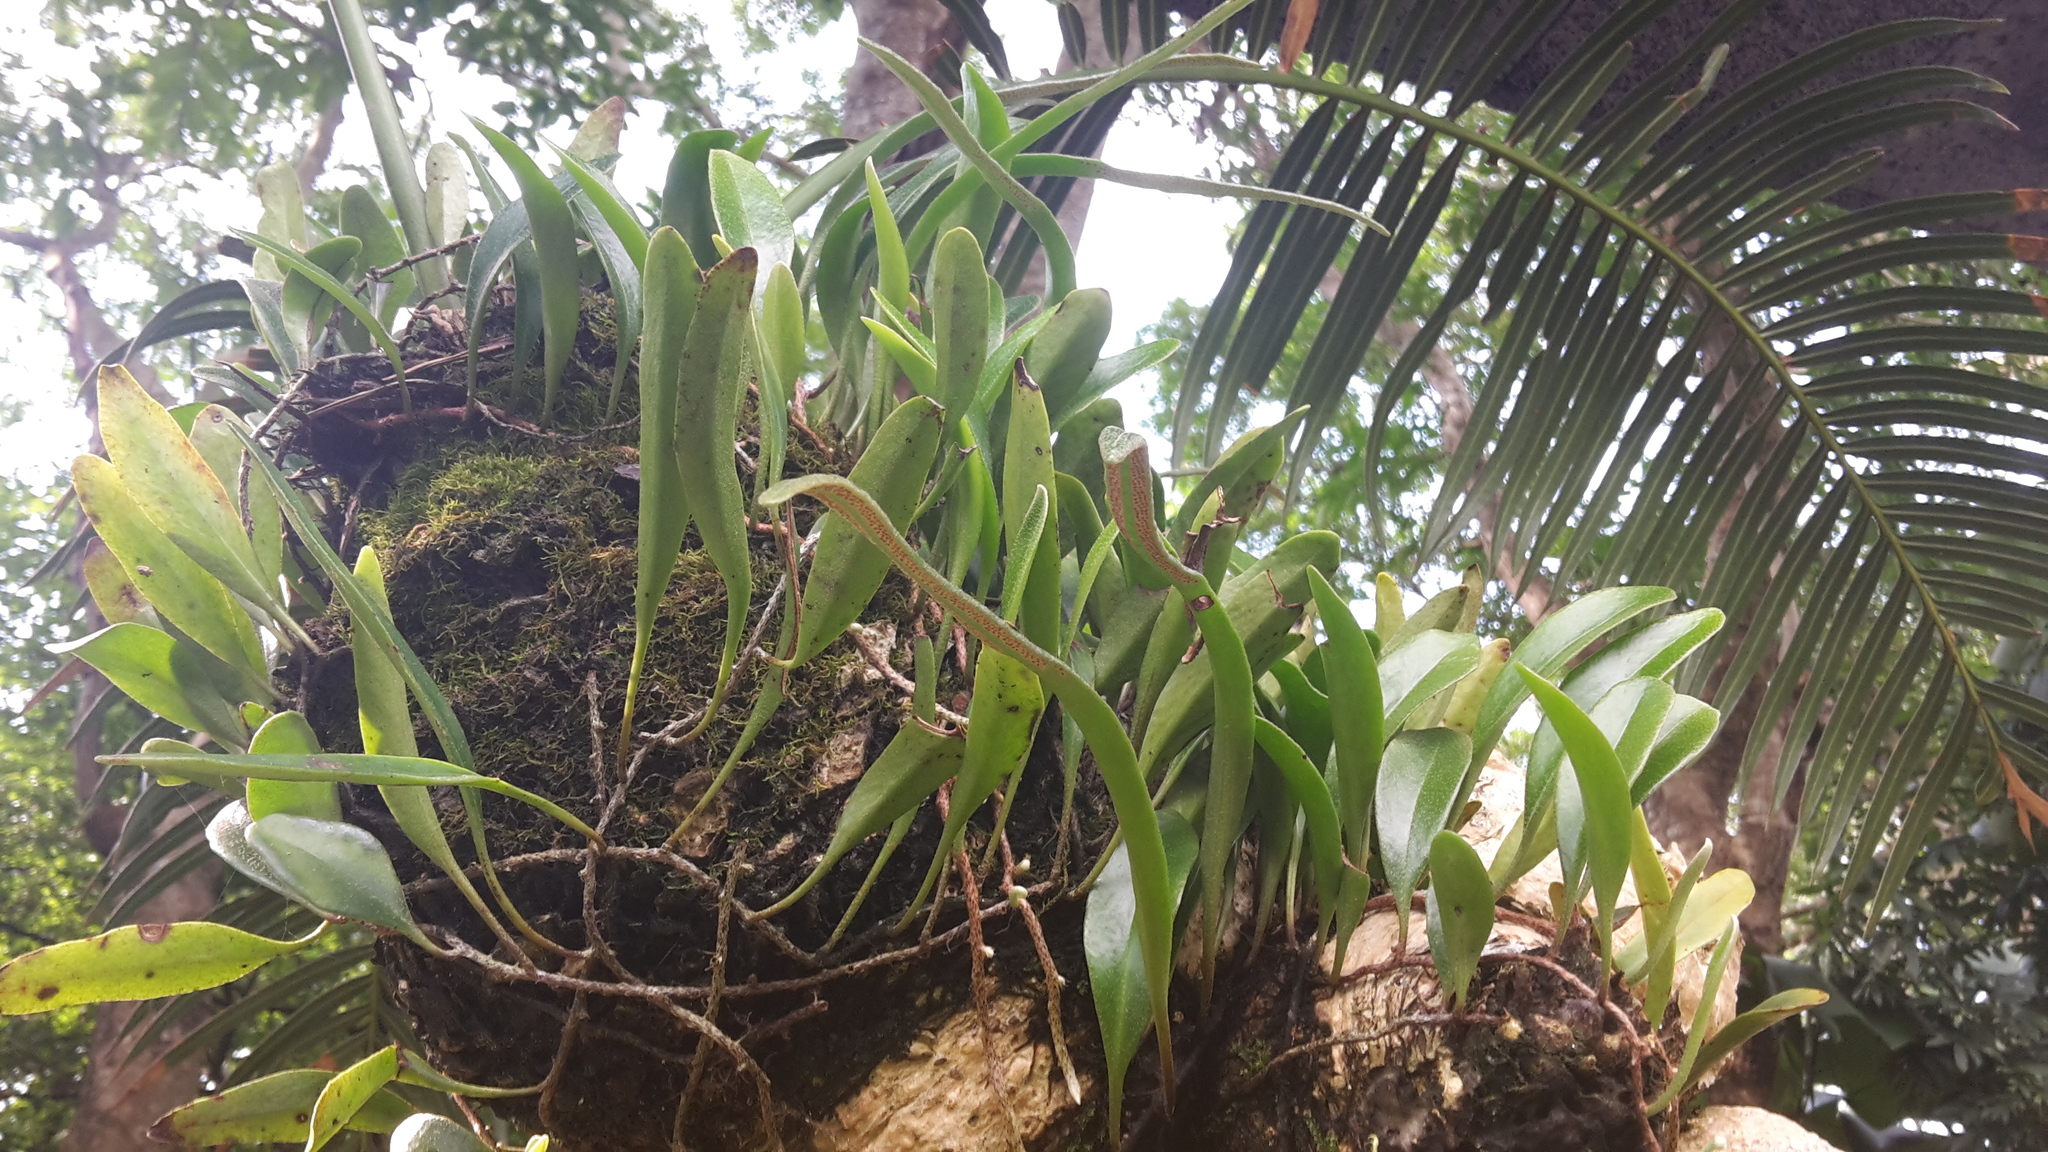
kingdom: Plantae
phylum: Tracheophyta
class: Polypodiopsida
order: Polypodiales
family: Polypodiaceae
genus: Pyrrosia
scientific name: Pyrrosia adnascens
